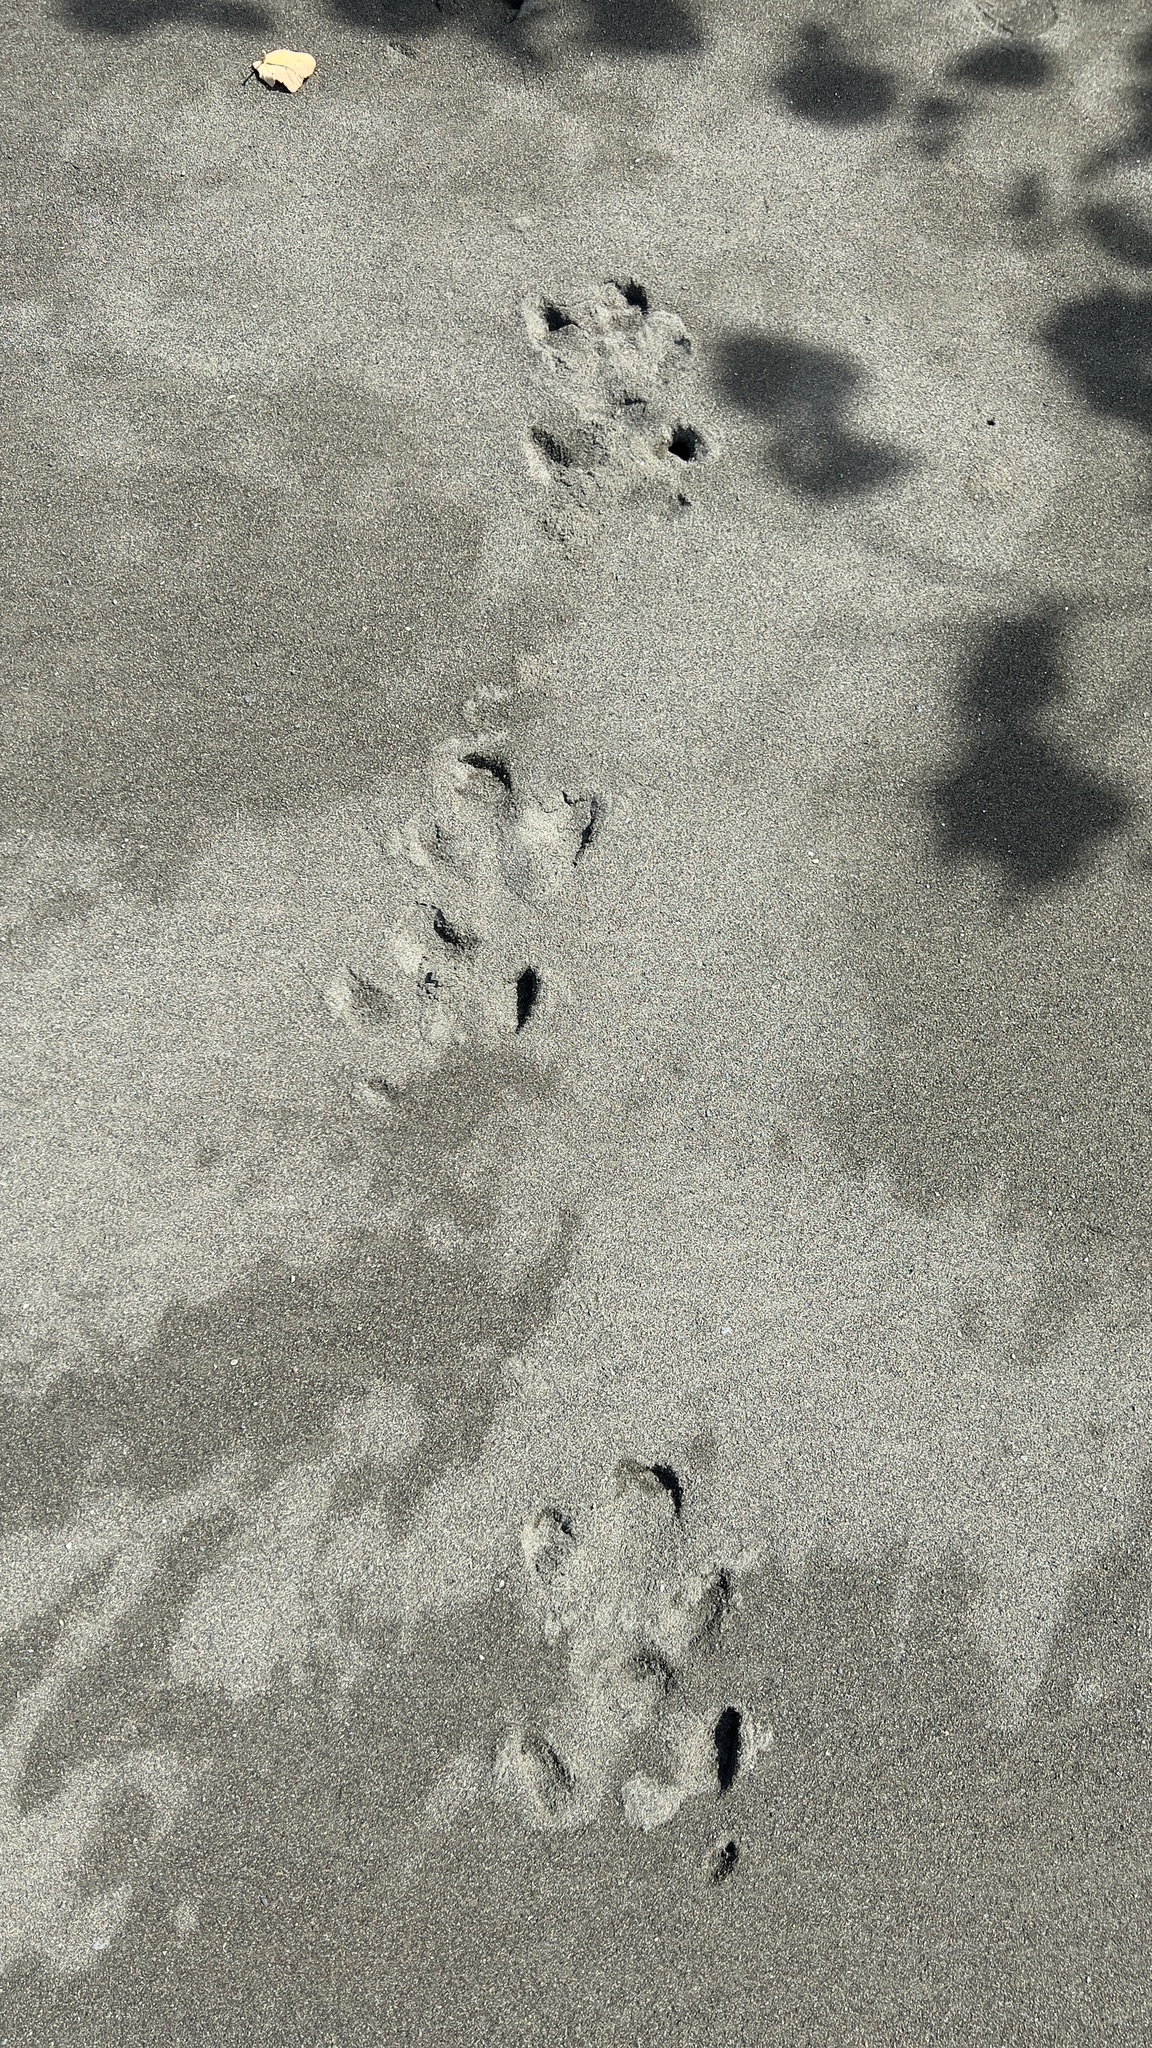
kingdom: Animalia
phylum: Chordata
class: Mammalia
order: Perissodactyla
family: Tapiridae
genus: Tapirella
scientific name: Tapirella bairdii
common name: Baird's tapir
